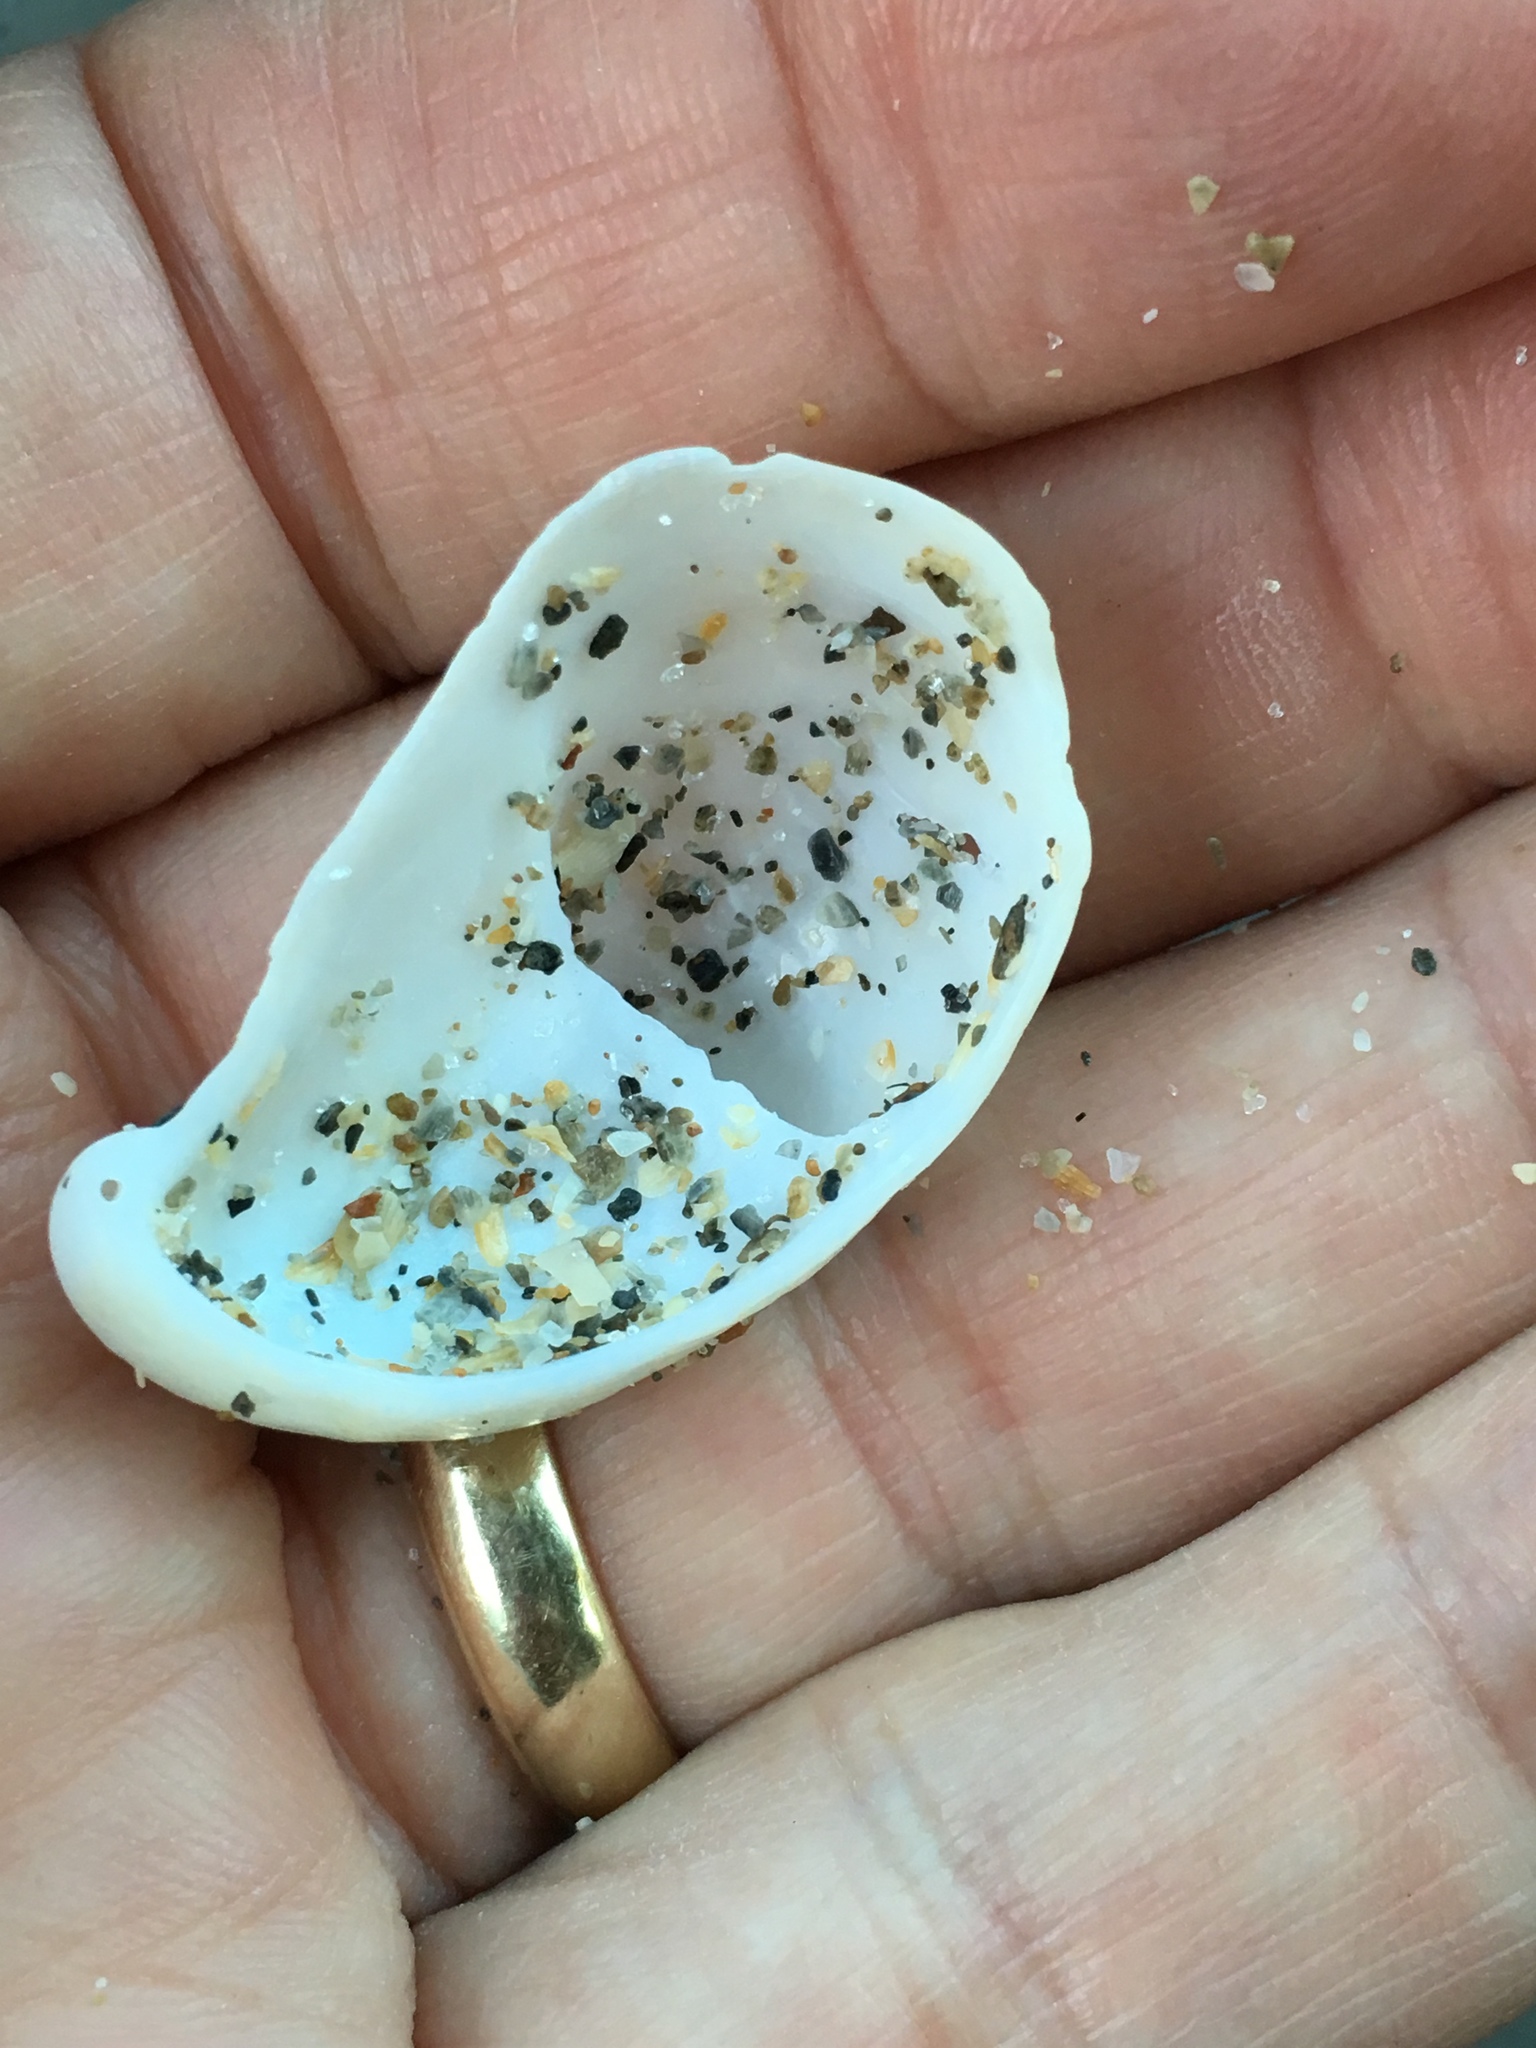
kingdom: Animalia
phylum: Mollusca
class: Gastropoda
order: Littorinimorpha
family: Calyptraeidae
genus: Crepidula
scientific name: Crepidula fornicata
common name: Slipper limpet
